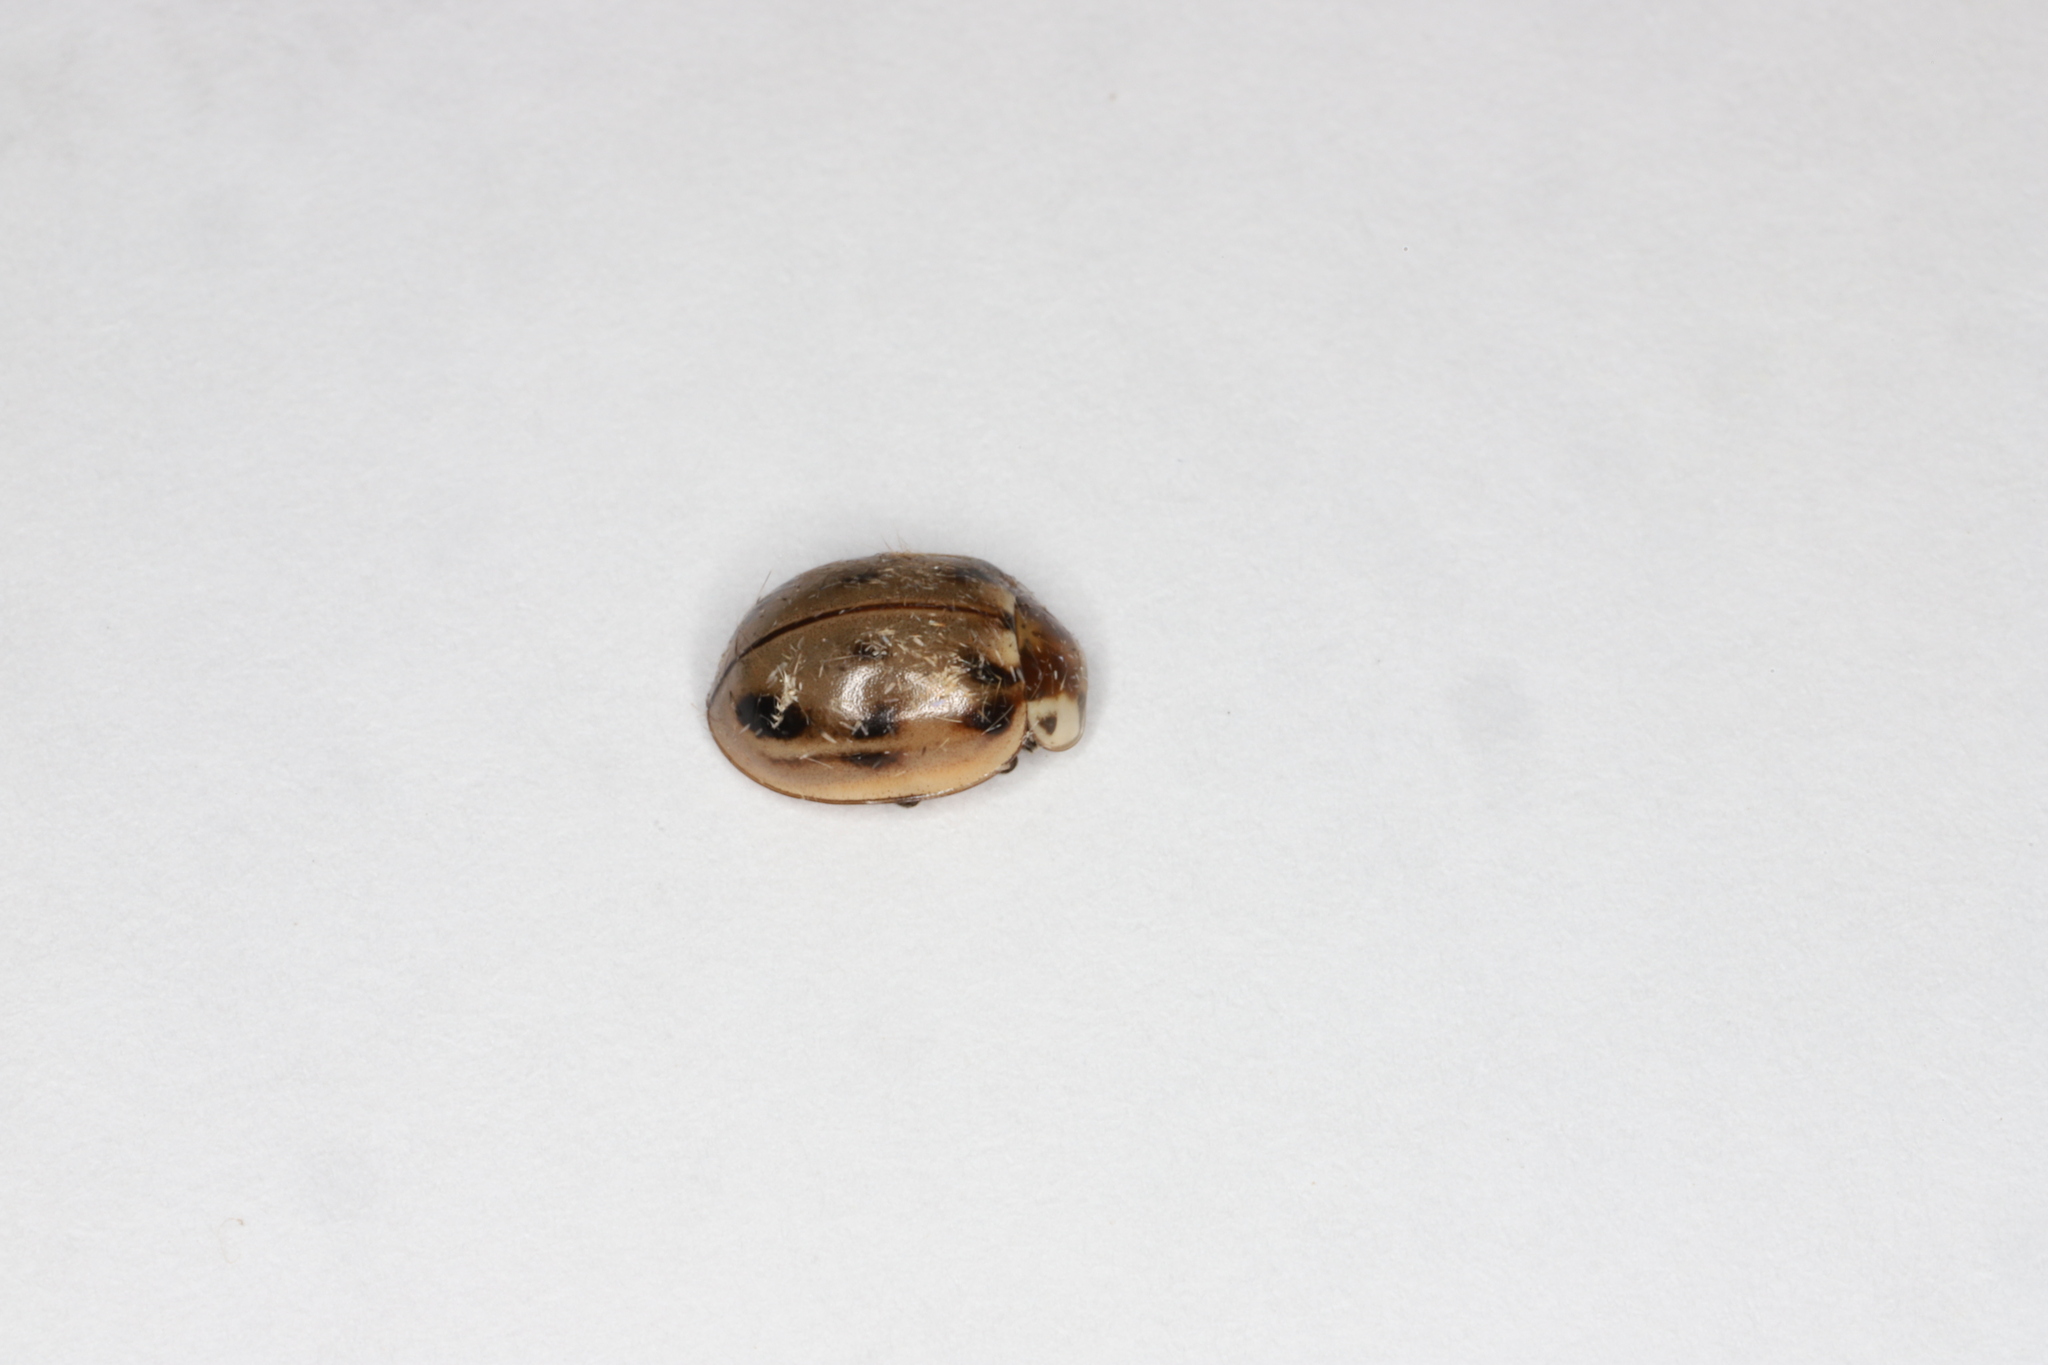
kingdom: Animalia
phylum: Arthropoda
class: Insecta
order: Coleoptera
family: Coccinellidae
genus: Myzia
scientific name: Myzia pullata
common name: Streaked lady beetle
